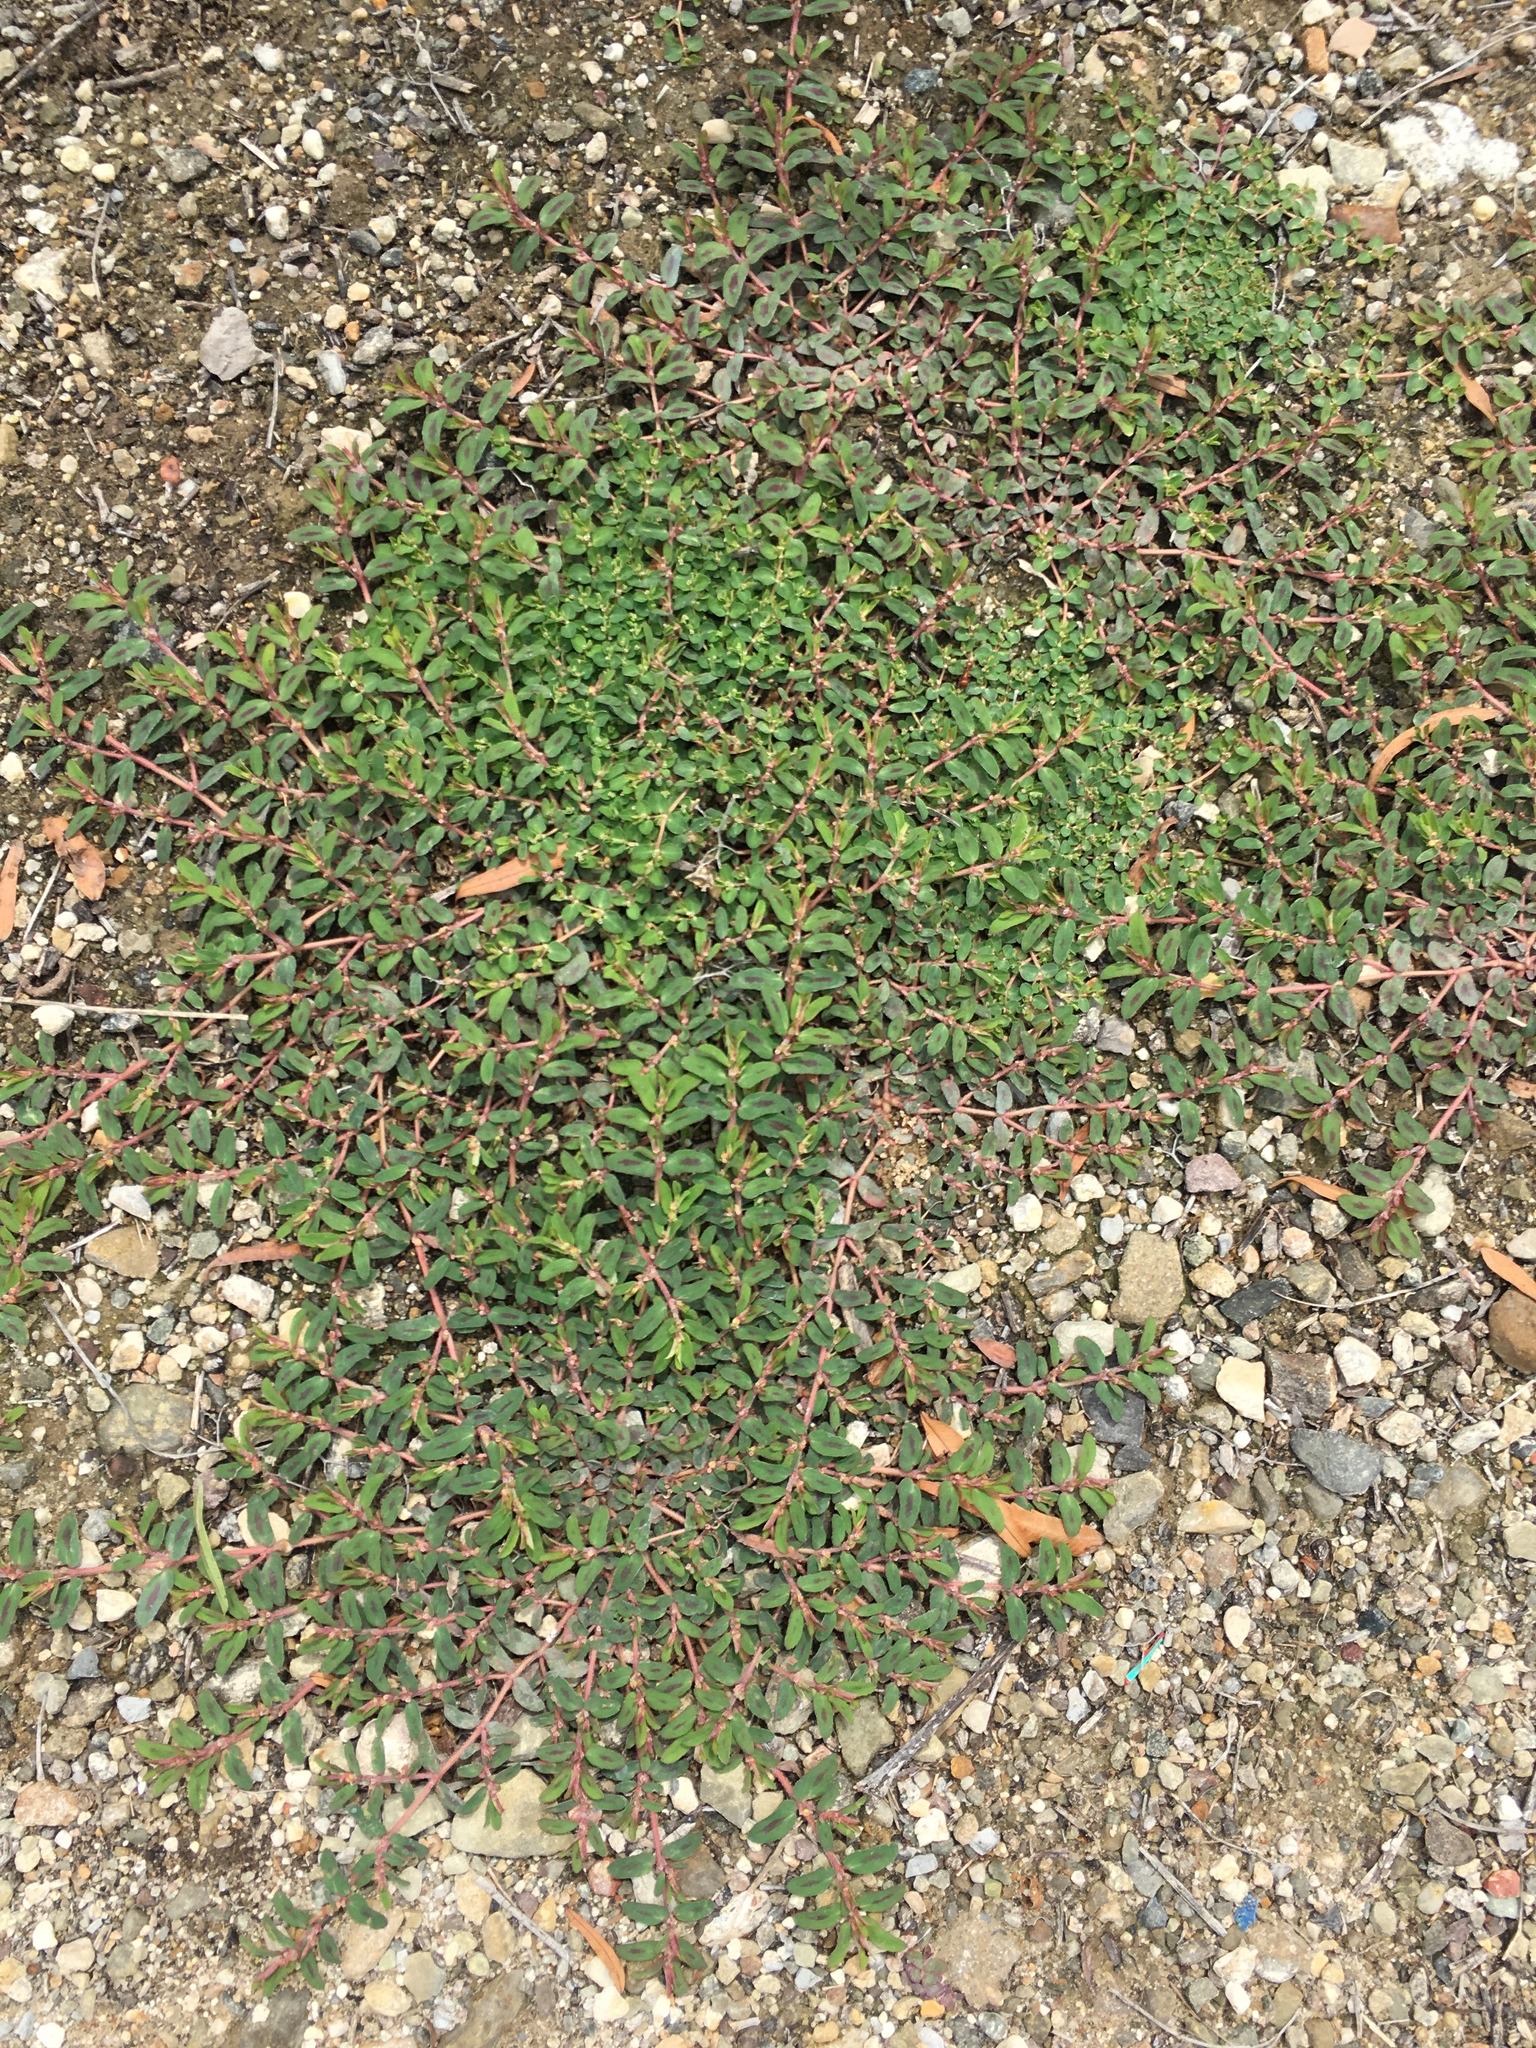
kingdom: Plantae
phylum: Tracheophyta
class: Magnoliopsida
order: Malpighiales
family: Euphorbiaceae
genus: Euphorbia
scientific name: Euphorbia maculata
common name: Spotted spurge
